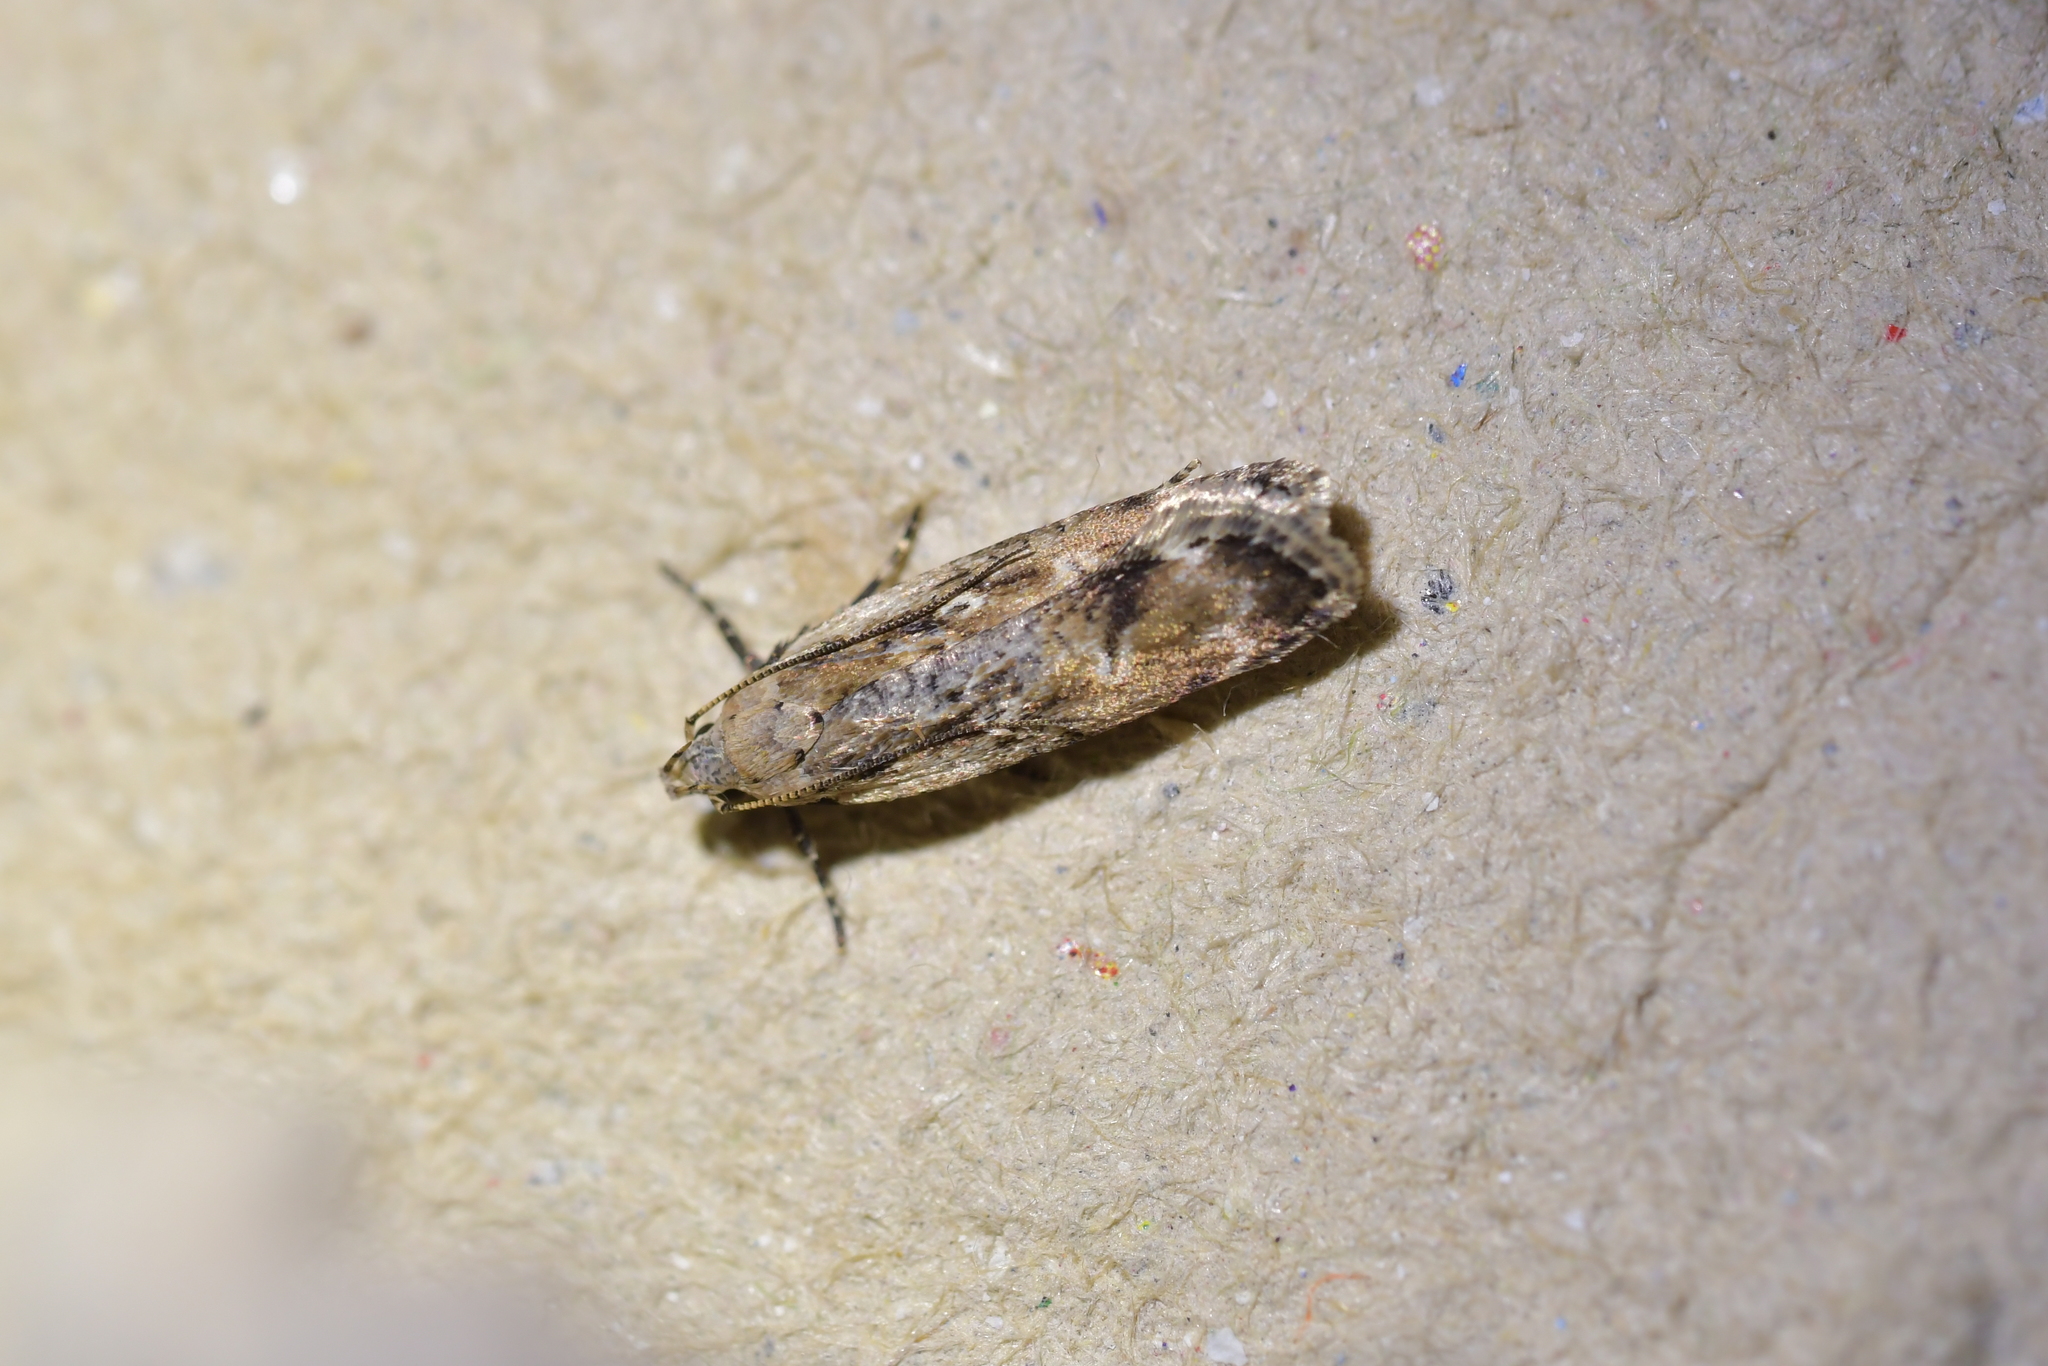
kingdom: Animalia
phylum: Arthropoda
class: Insecta
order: Lepidoptera
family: Gelechiidae
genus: Anisoplaca
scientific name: Anisoplaca achyrota
